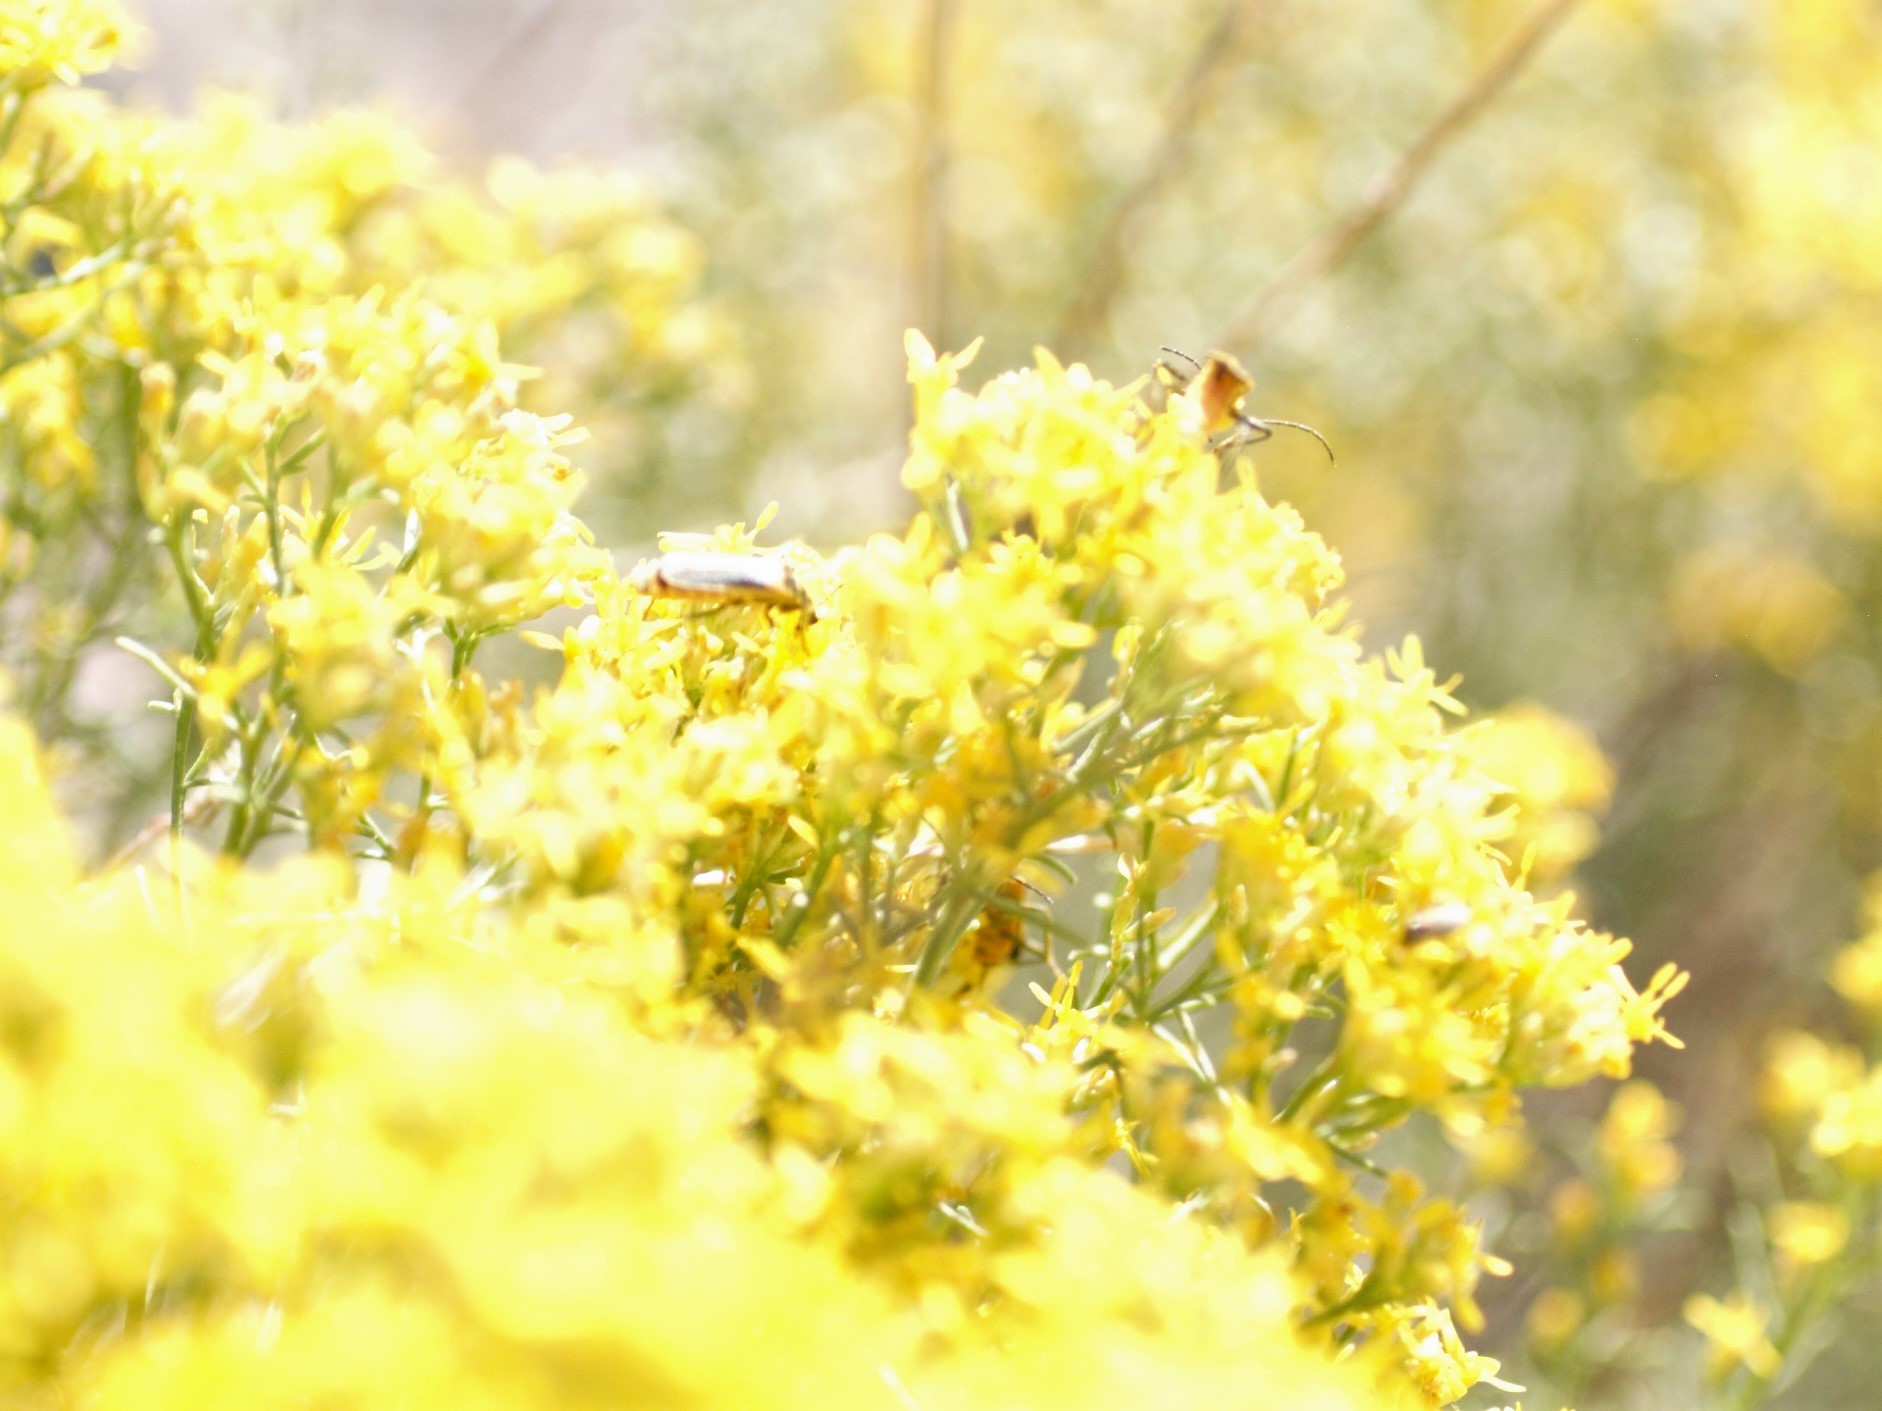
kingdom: Animalia
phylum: Arthropoda
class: Insecta
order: Coleoptera
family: Cantharidae
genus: Chauliognathus
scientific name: Chauliognathus lewisi
